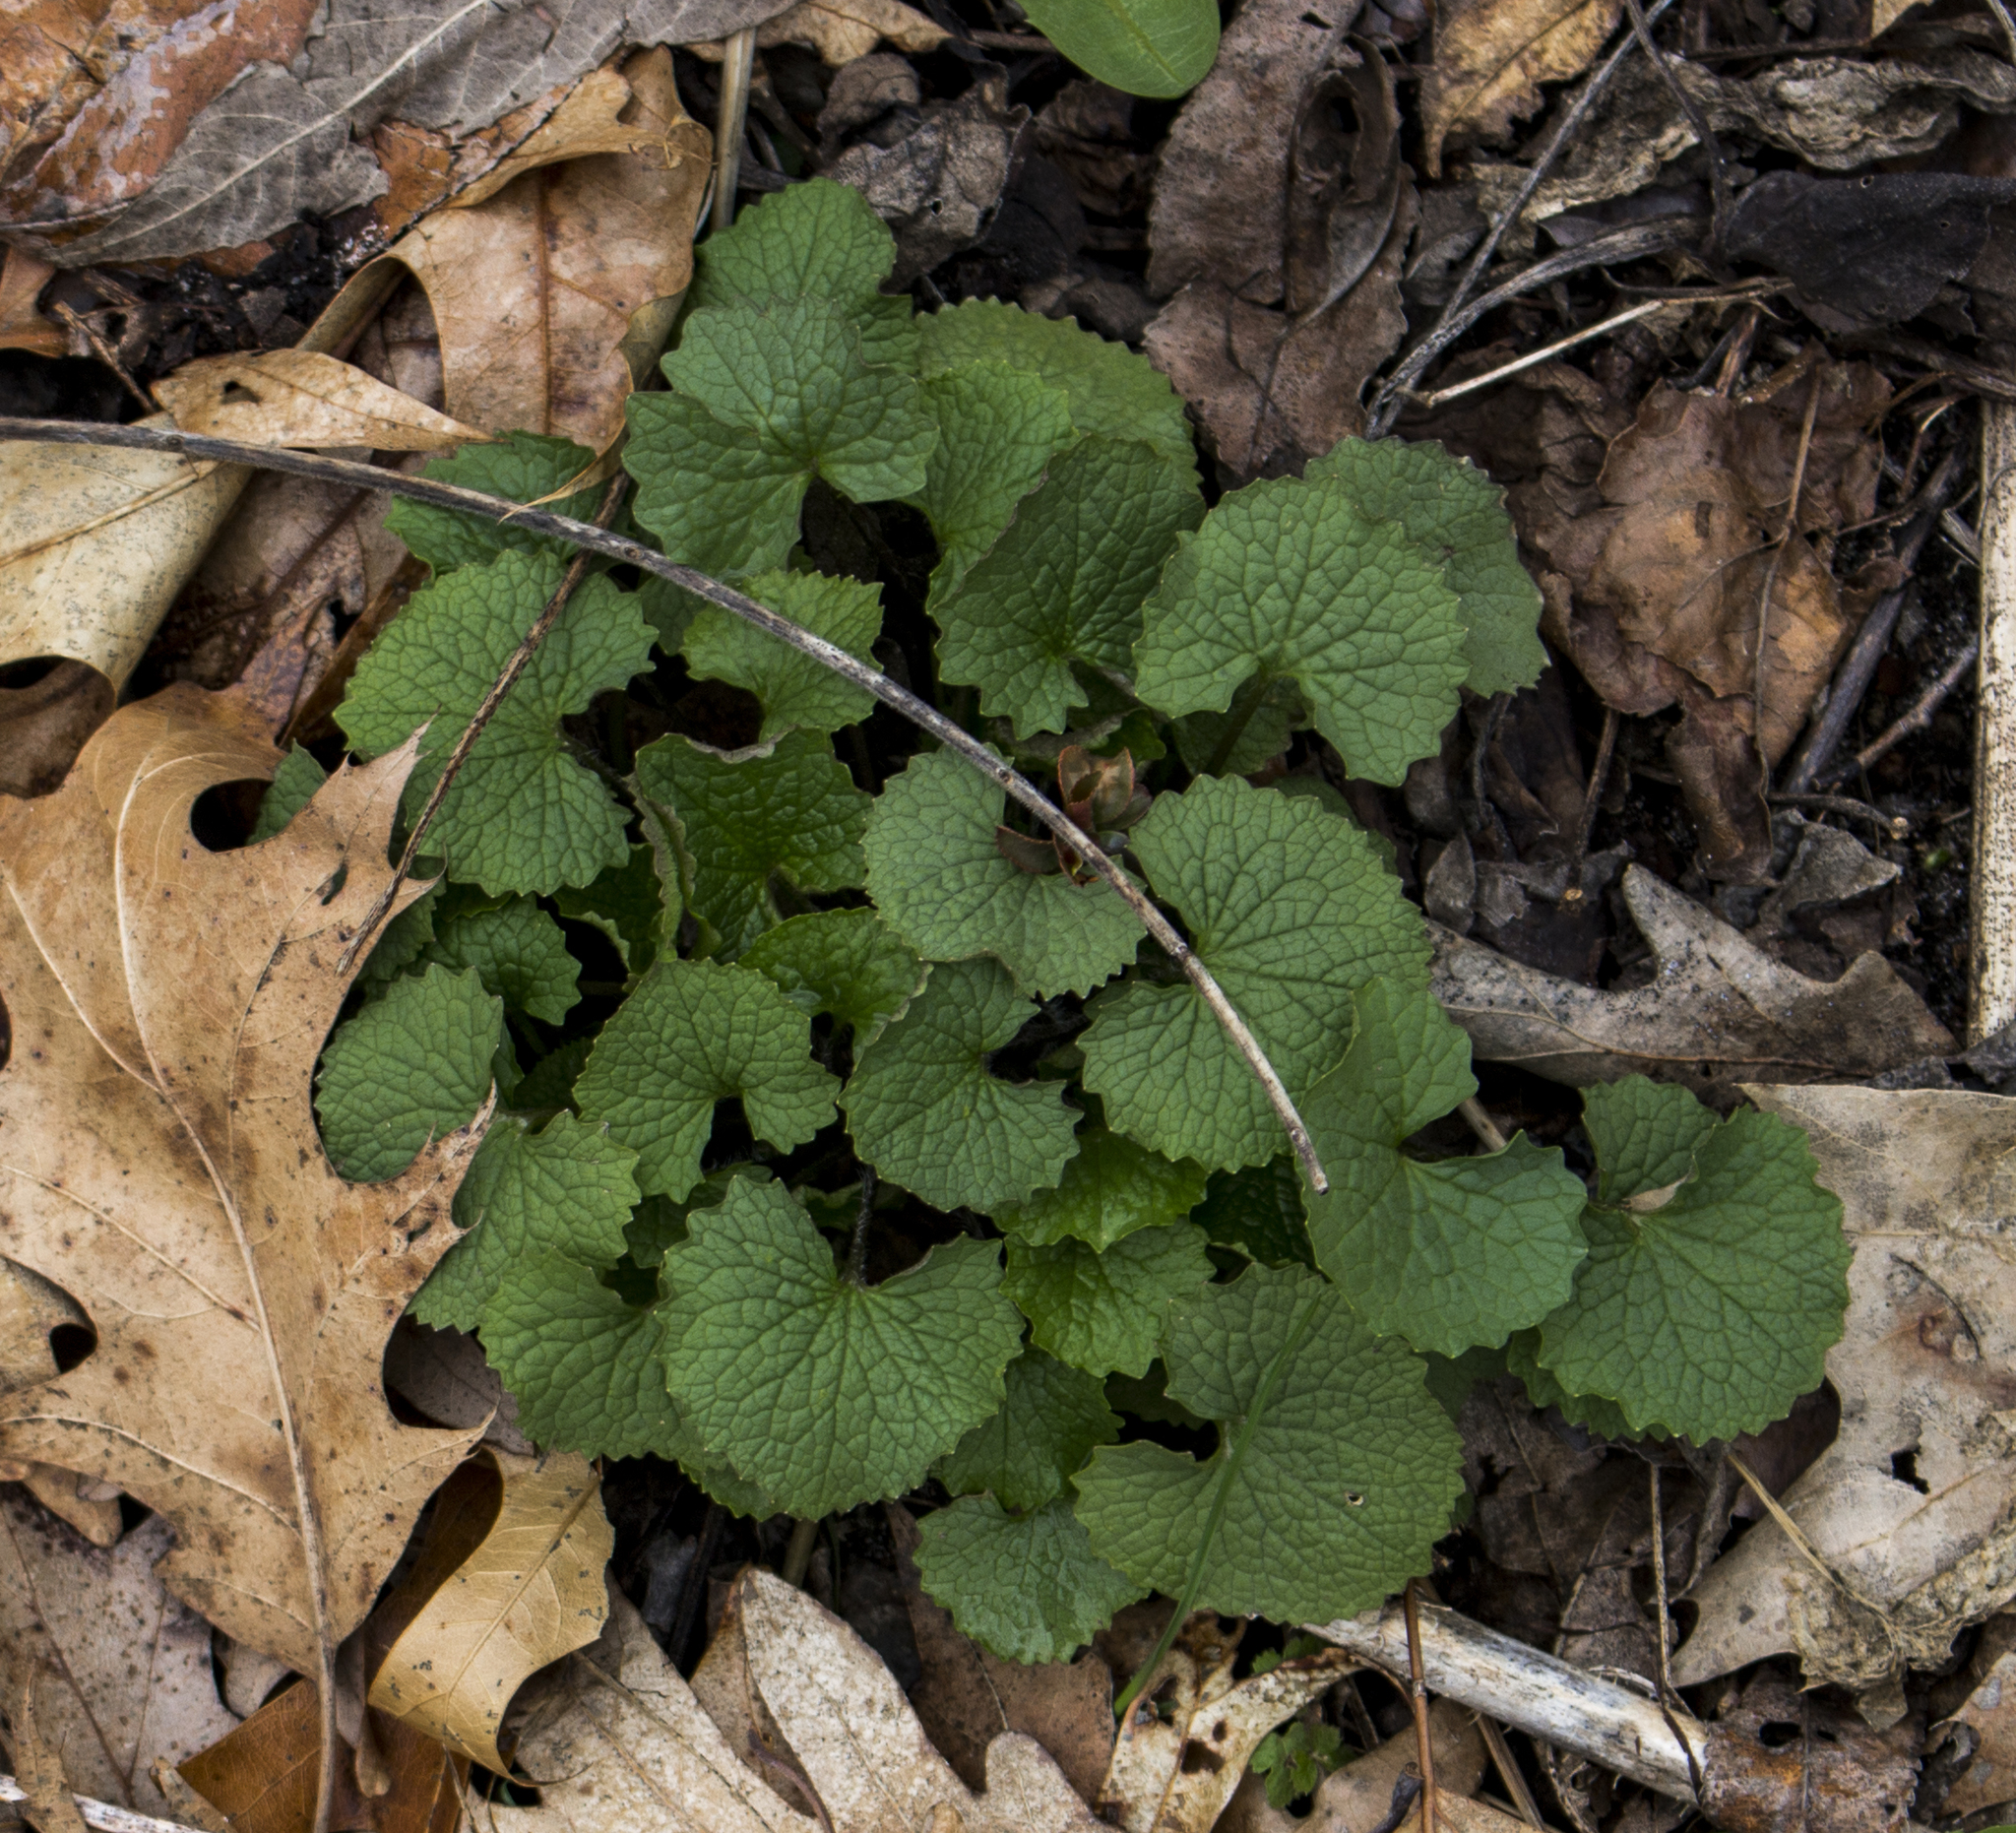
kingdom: Plantae
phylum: Tracheophyta
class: Magnoliopsida
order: Brassicales
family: Brassicaceae
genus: Alliaria
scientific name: Alliaria petiolata
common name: Garlic mustard
